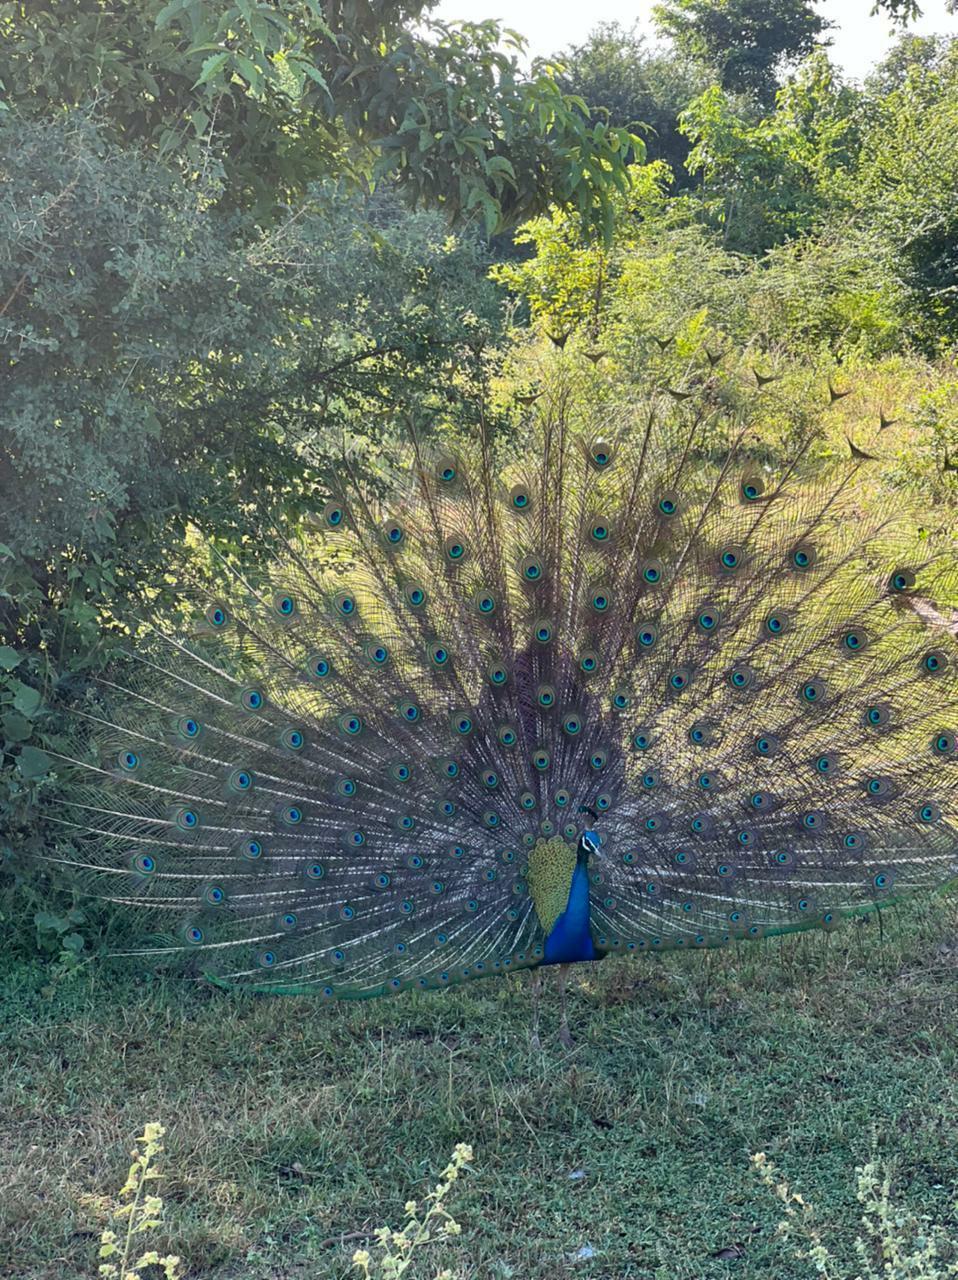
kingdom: Animalia
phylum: Chordata
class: Aves
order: Galliformes
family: Phasianidae
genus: Pavo
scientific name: Pavo cristatus
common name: Indian peafowl
